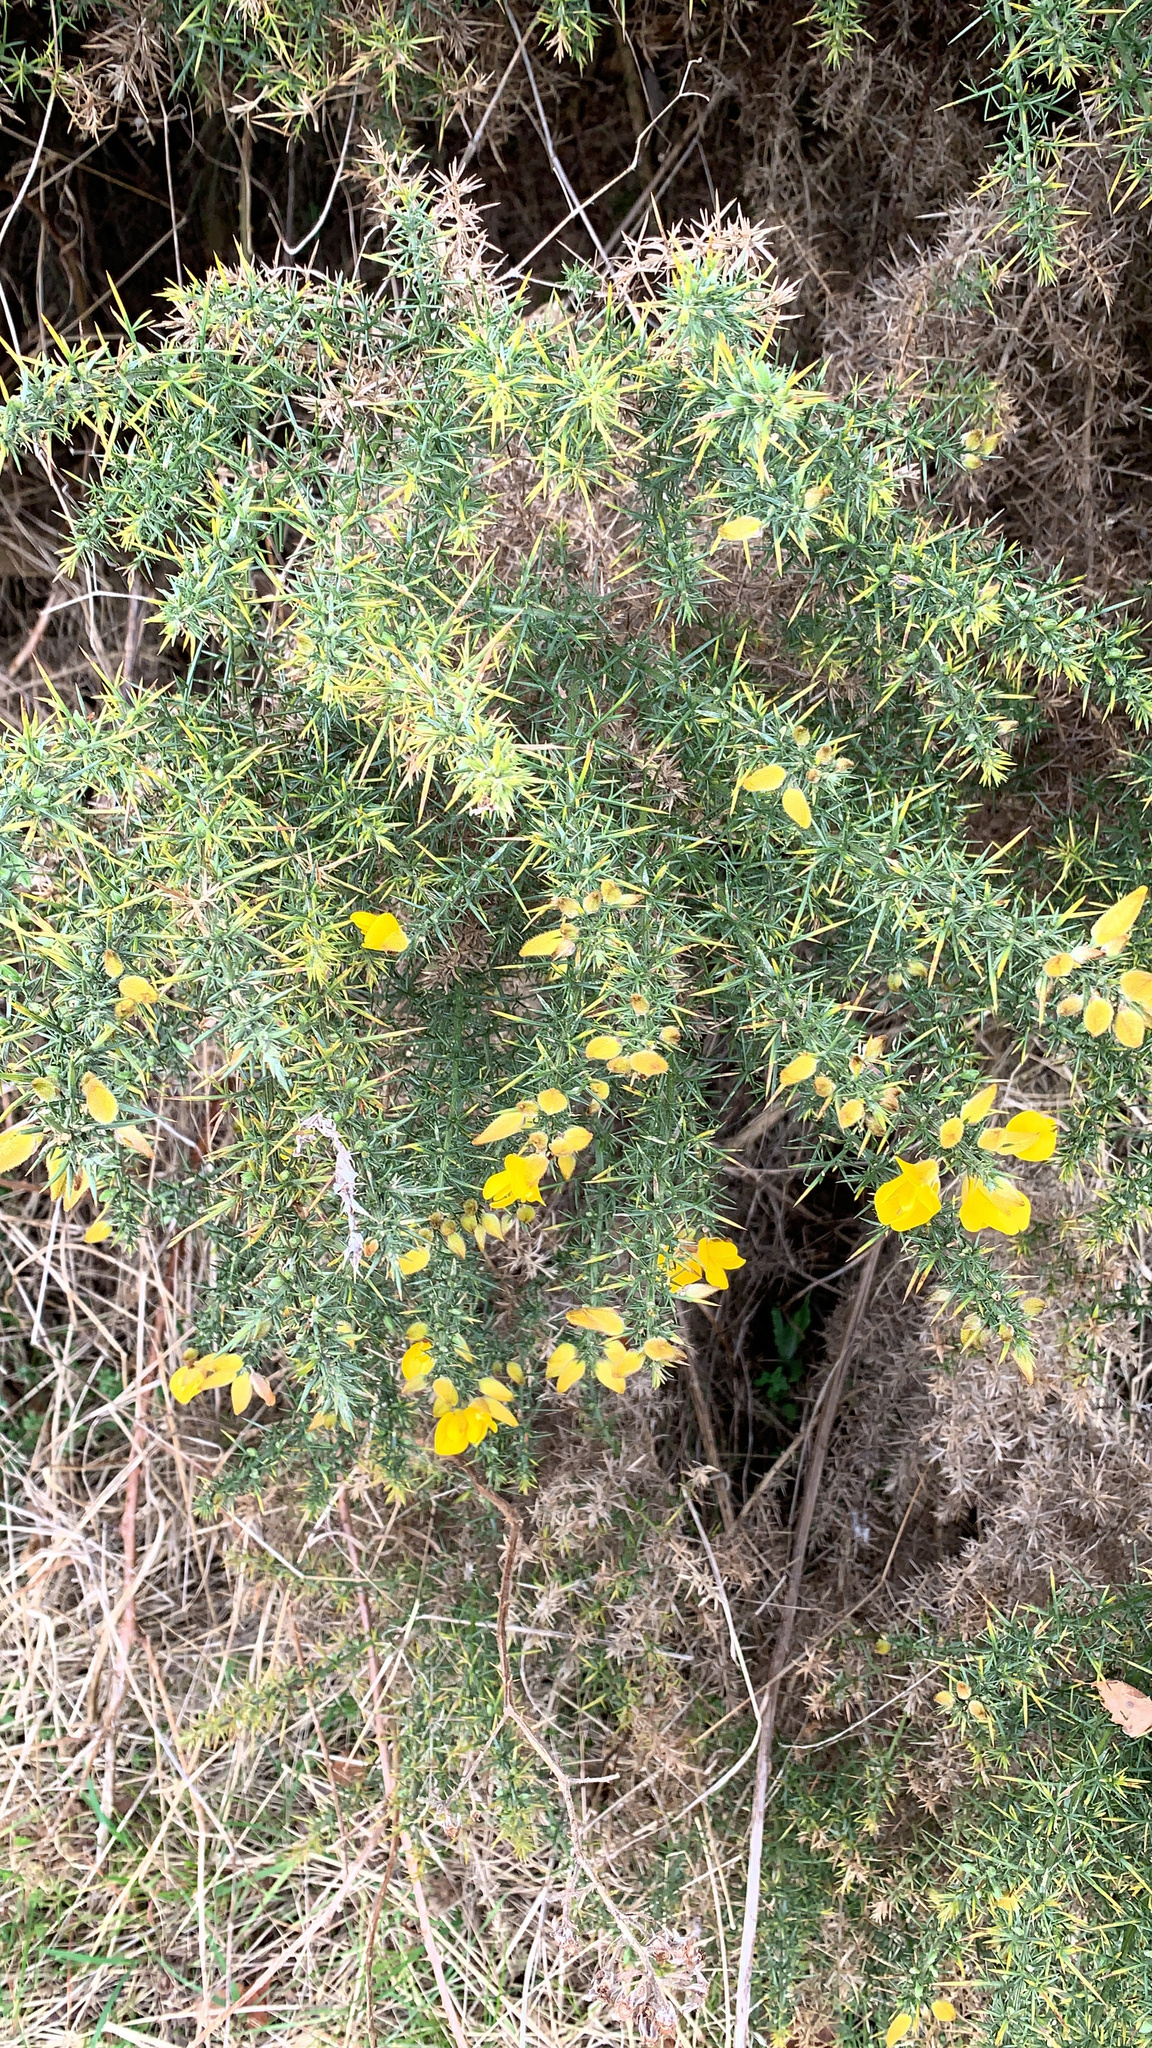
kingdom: Plantae
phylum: Tracheophyta
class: Magnoliopsida
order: Fabales
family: Fabaceae
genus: Ulex
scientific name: Ulex europaeus
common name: Common gorse
